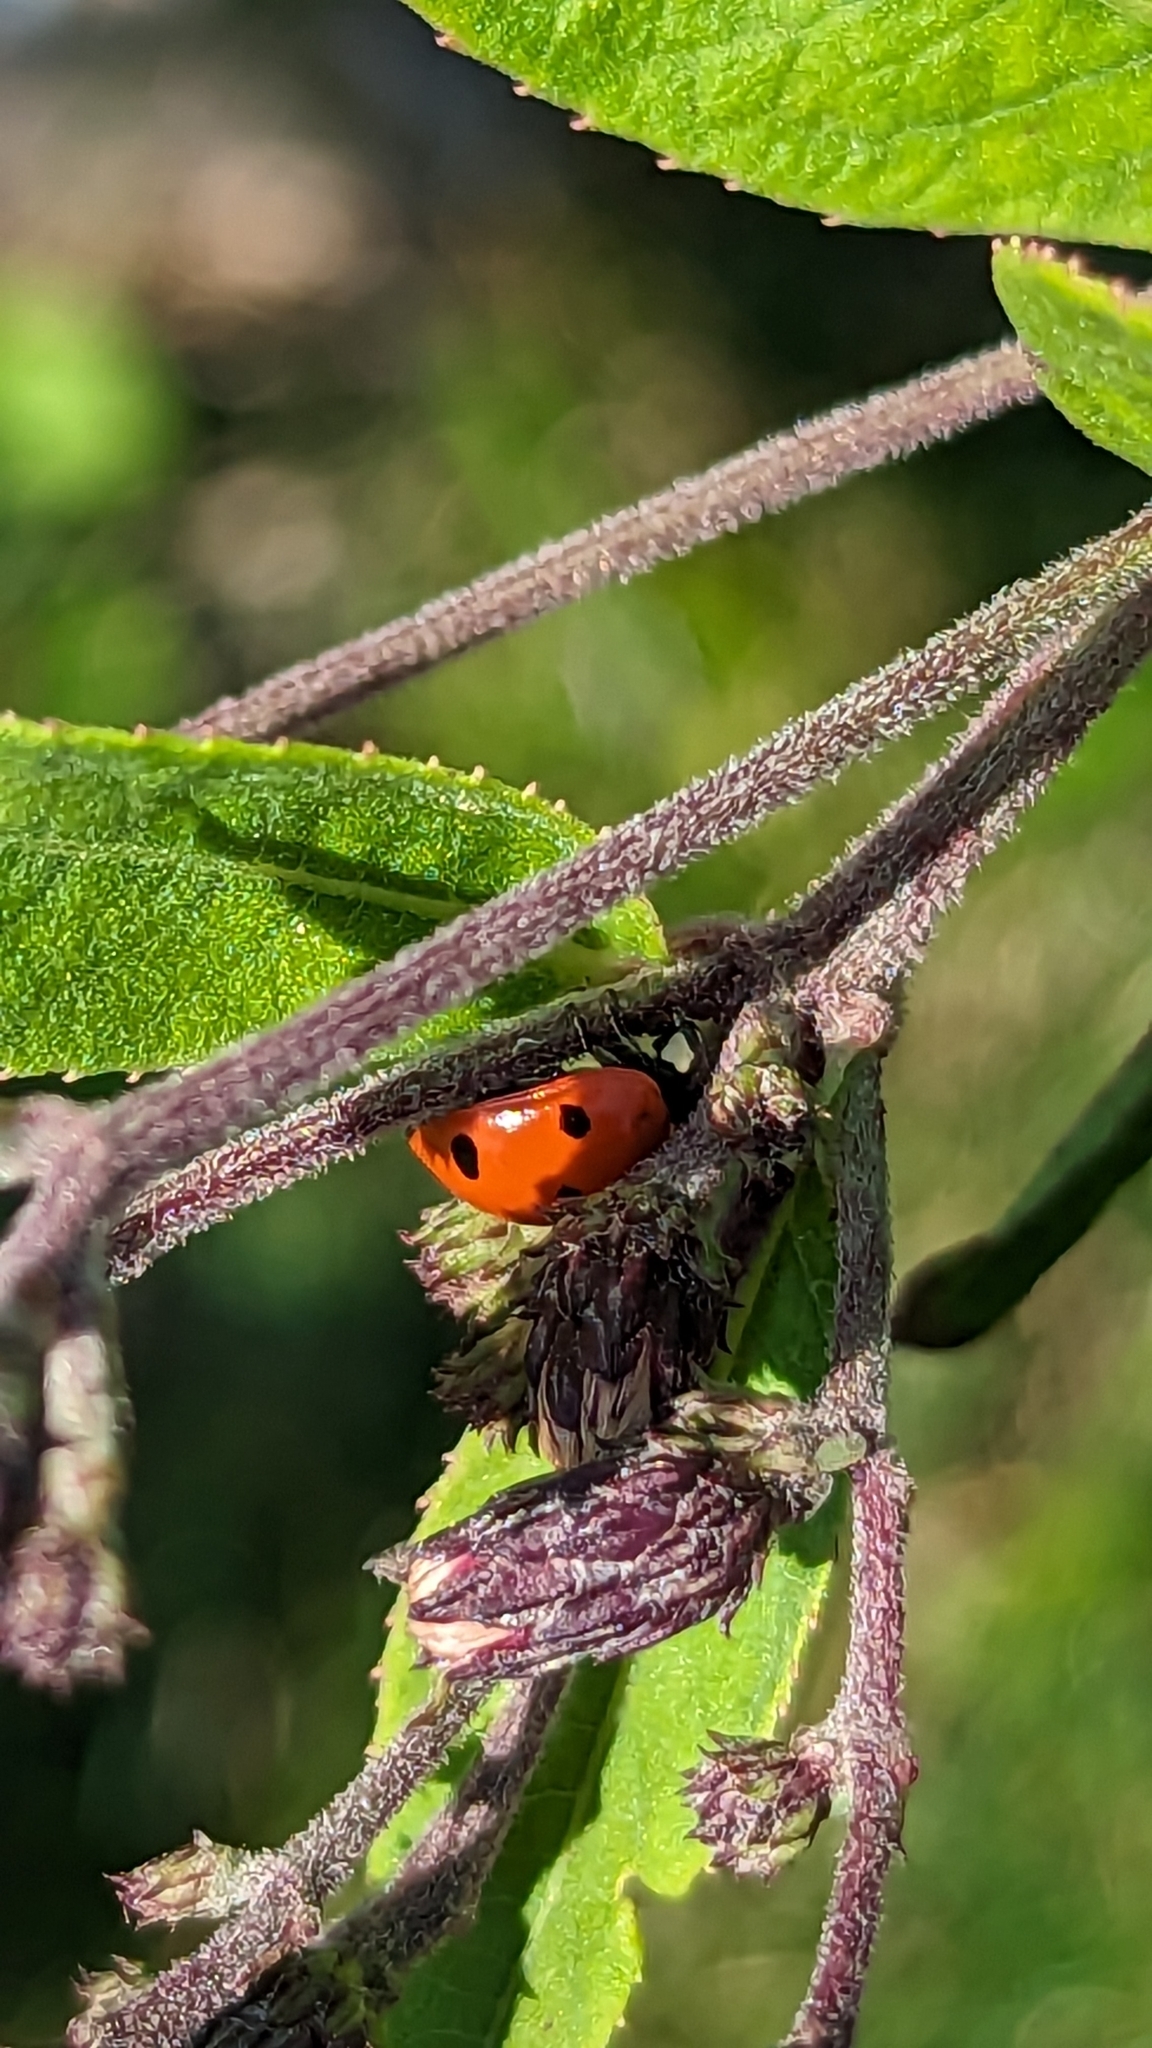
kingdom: Animalia
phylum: Arthropoda
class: Insecta
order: Coleoptera
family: Coccinellidae
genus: Coccinella
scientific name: Coccinella septempunctata
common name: Sevenspotted lady beetle
